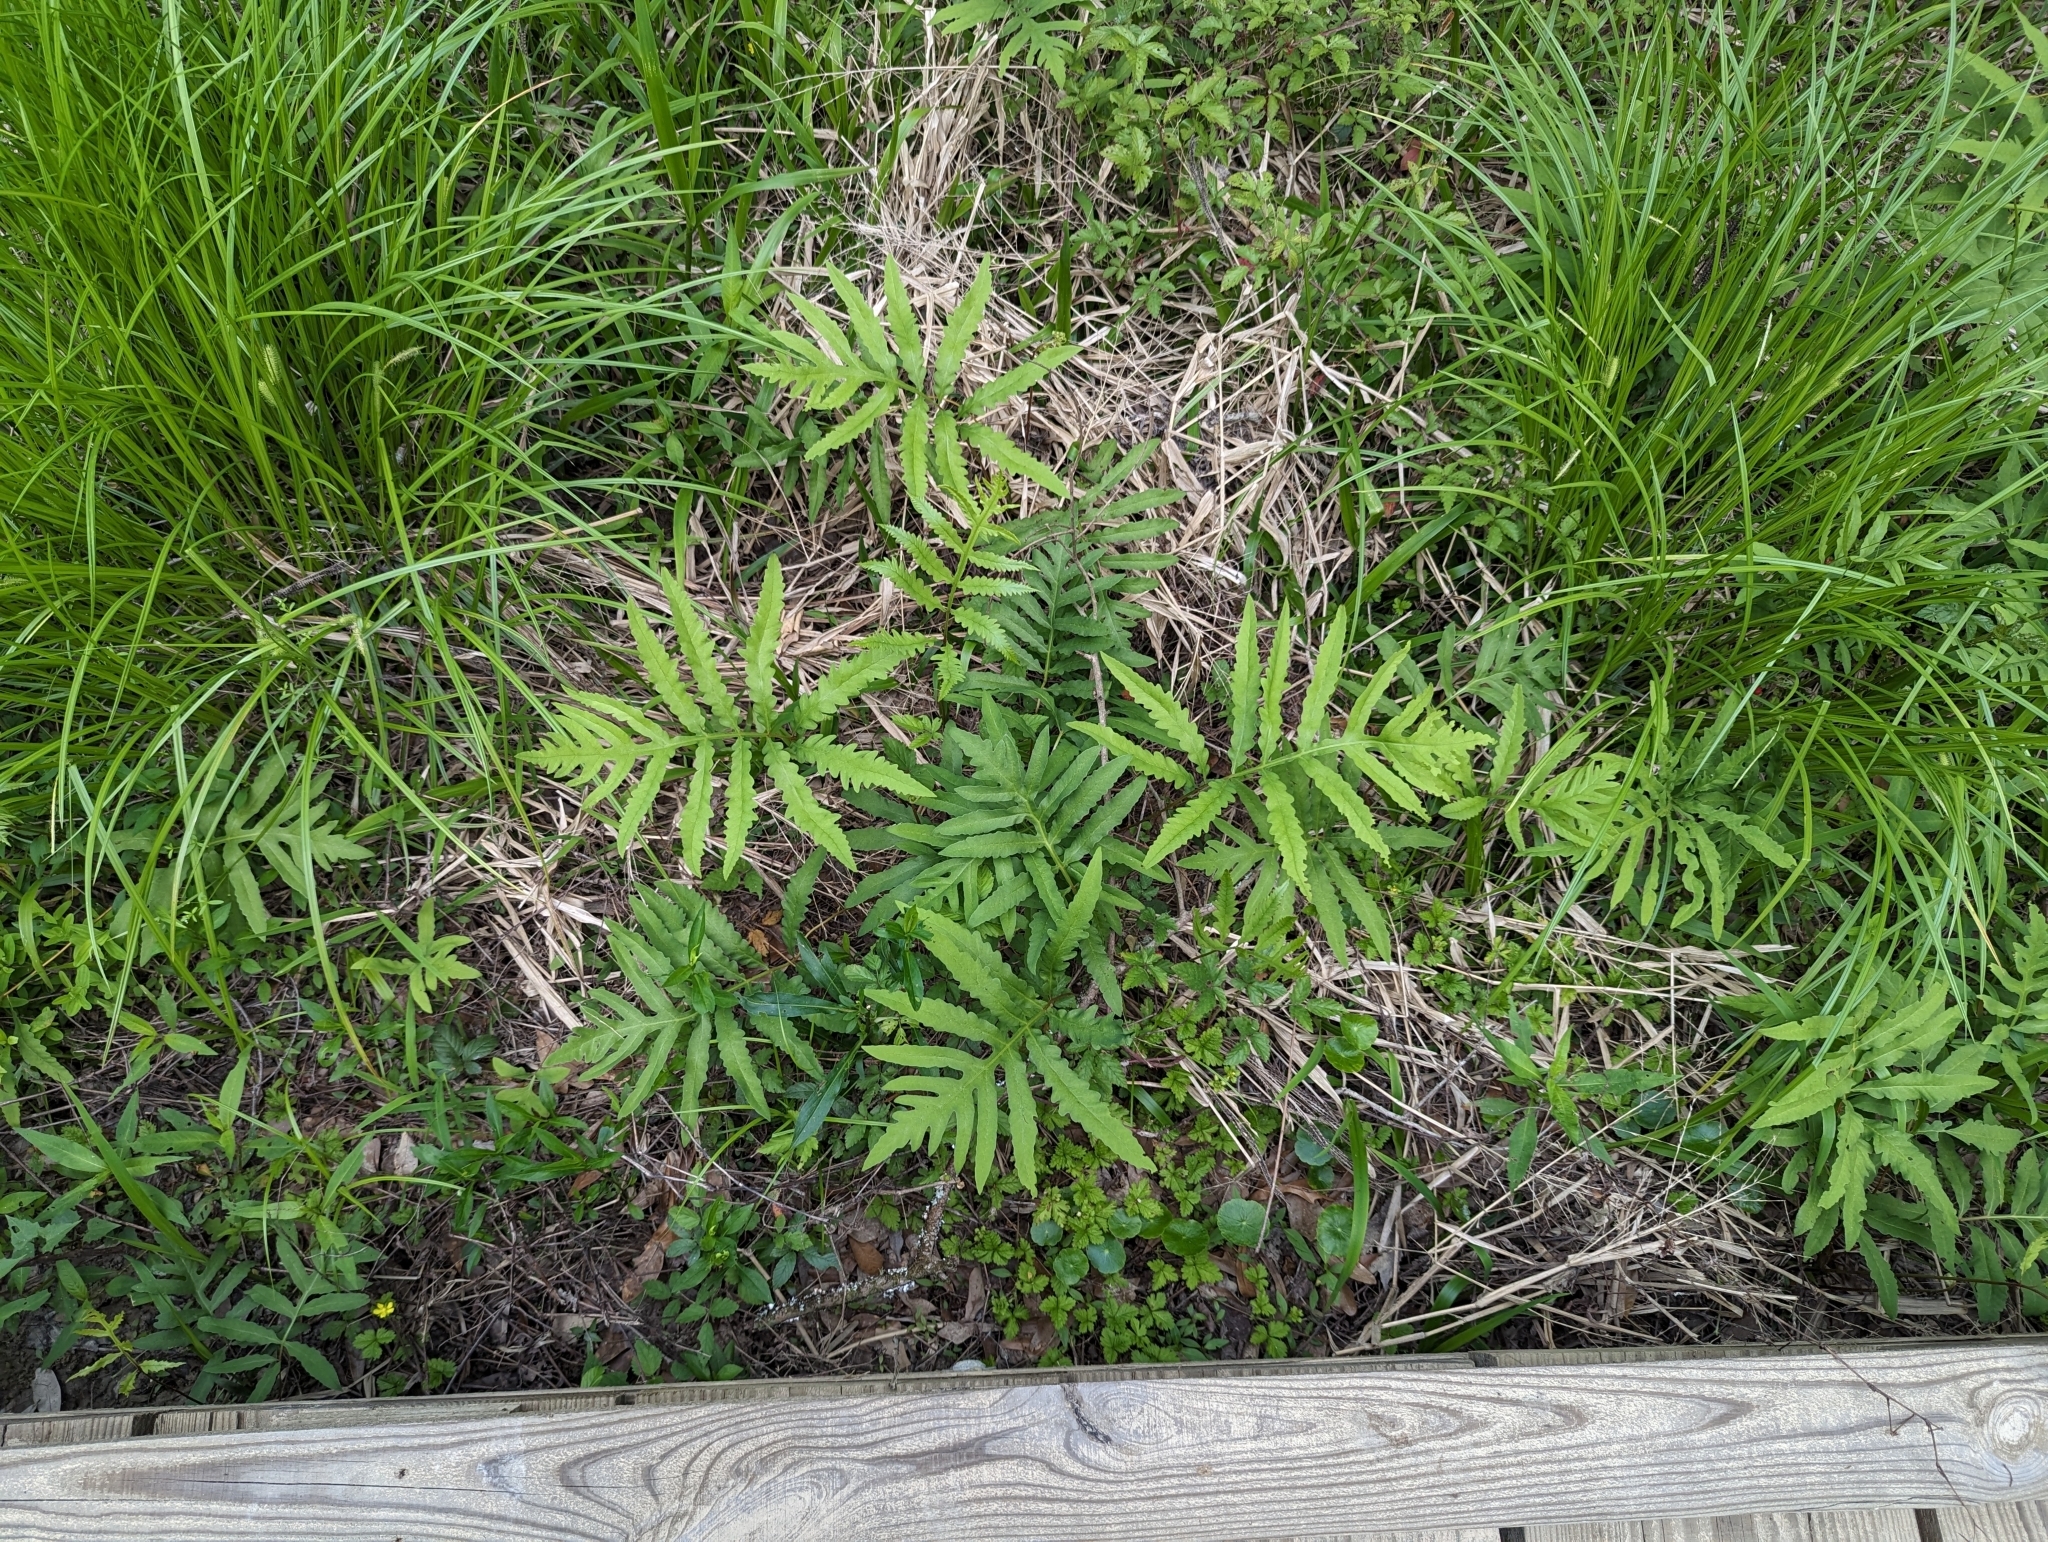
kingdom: Plantae
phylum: Tracheophyta
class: Polypodiopsida
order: Polypodiales
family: Onocleaceae
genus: Onoclea
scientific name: Onoclea sensibilis
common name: Sensitive fern
